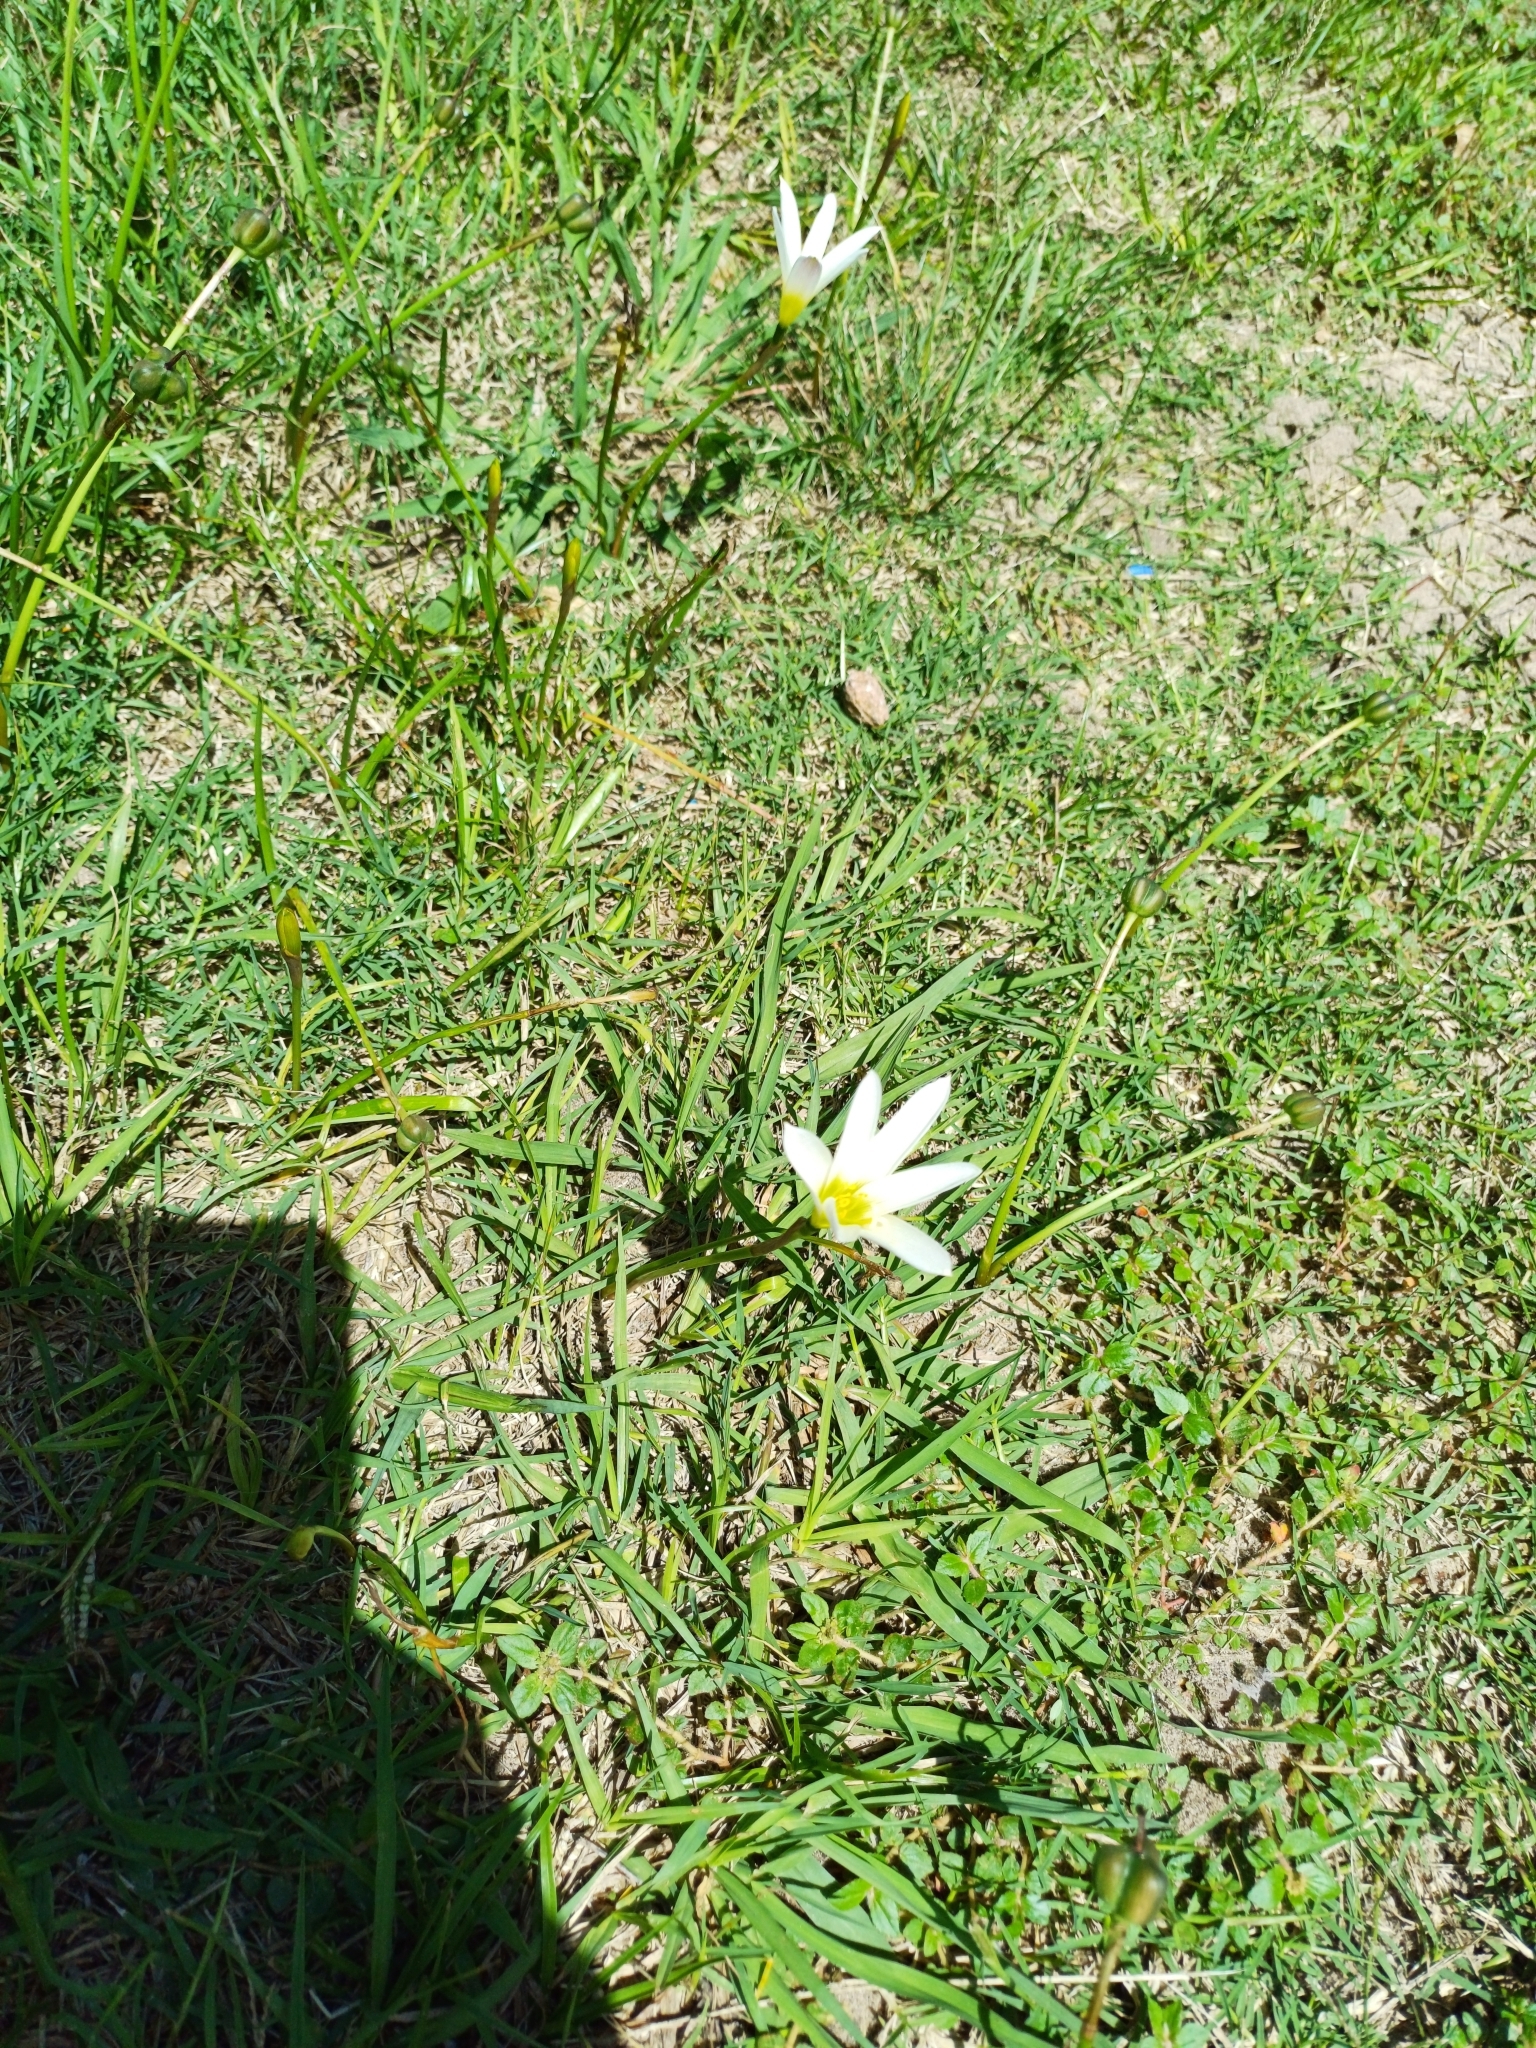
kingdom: Plantae
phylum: Tracheophyta
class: Liliopsida
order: Asparagales
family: Amaryllidaceae
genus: Zephyranthes
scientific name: Zephyranthes mesochloa
